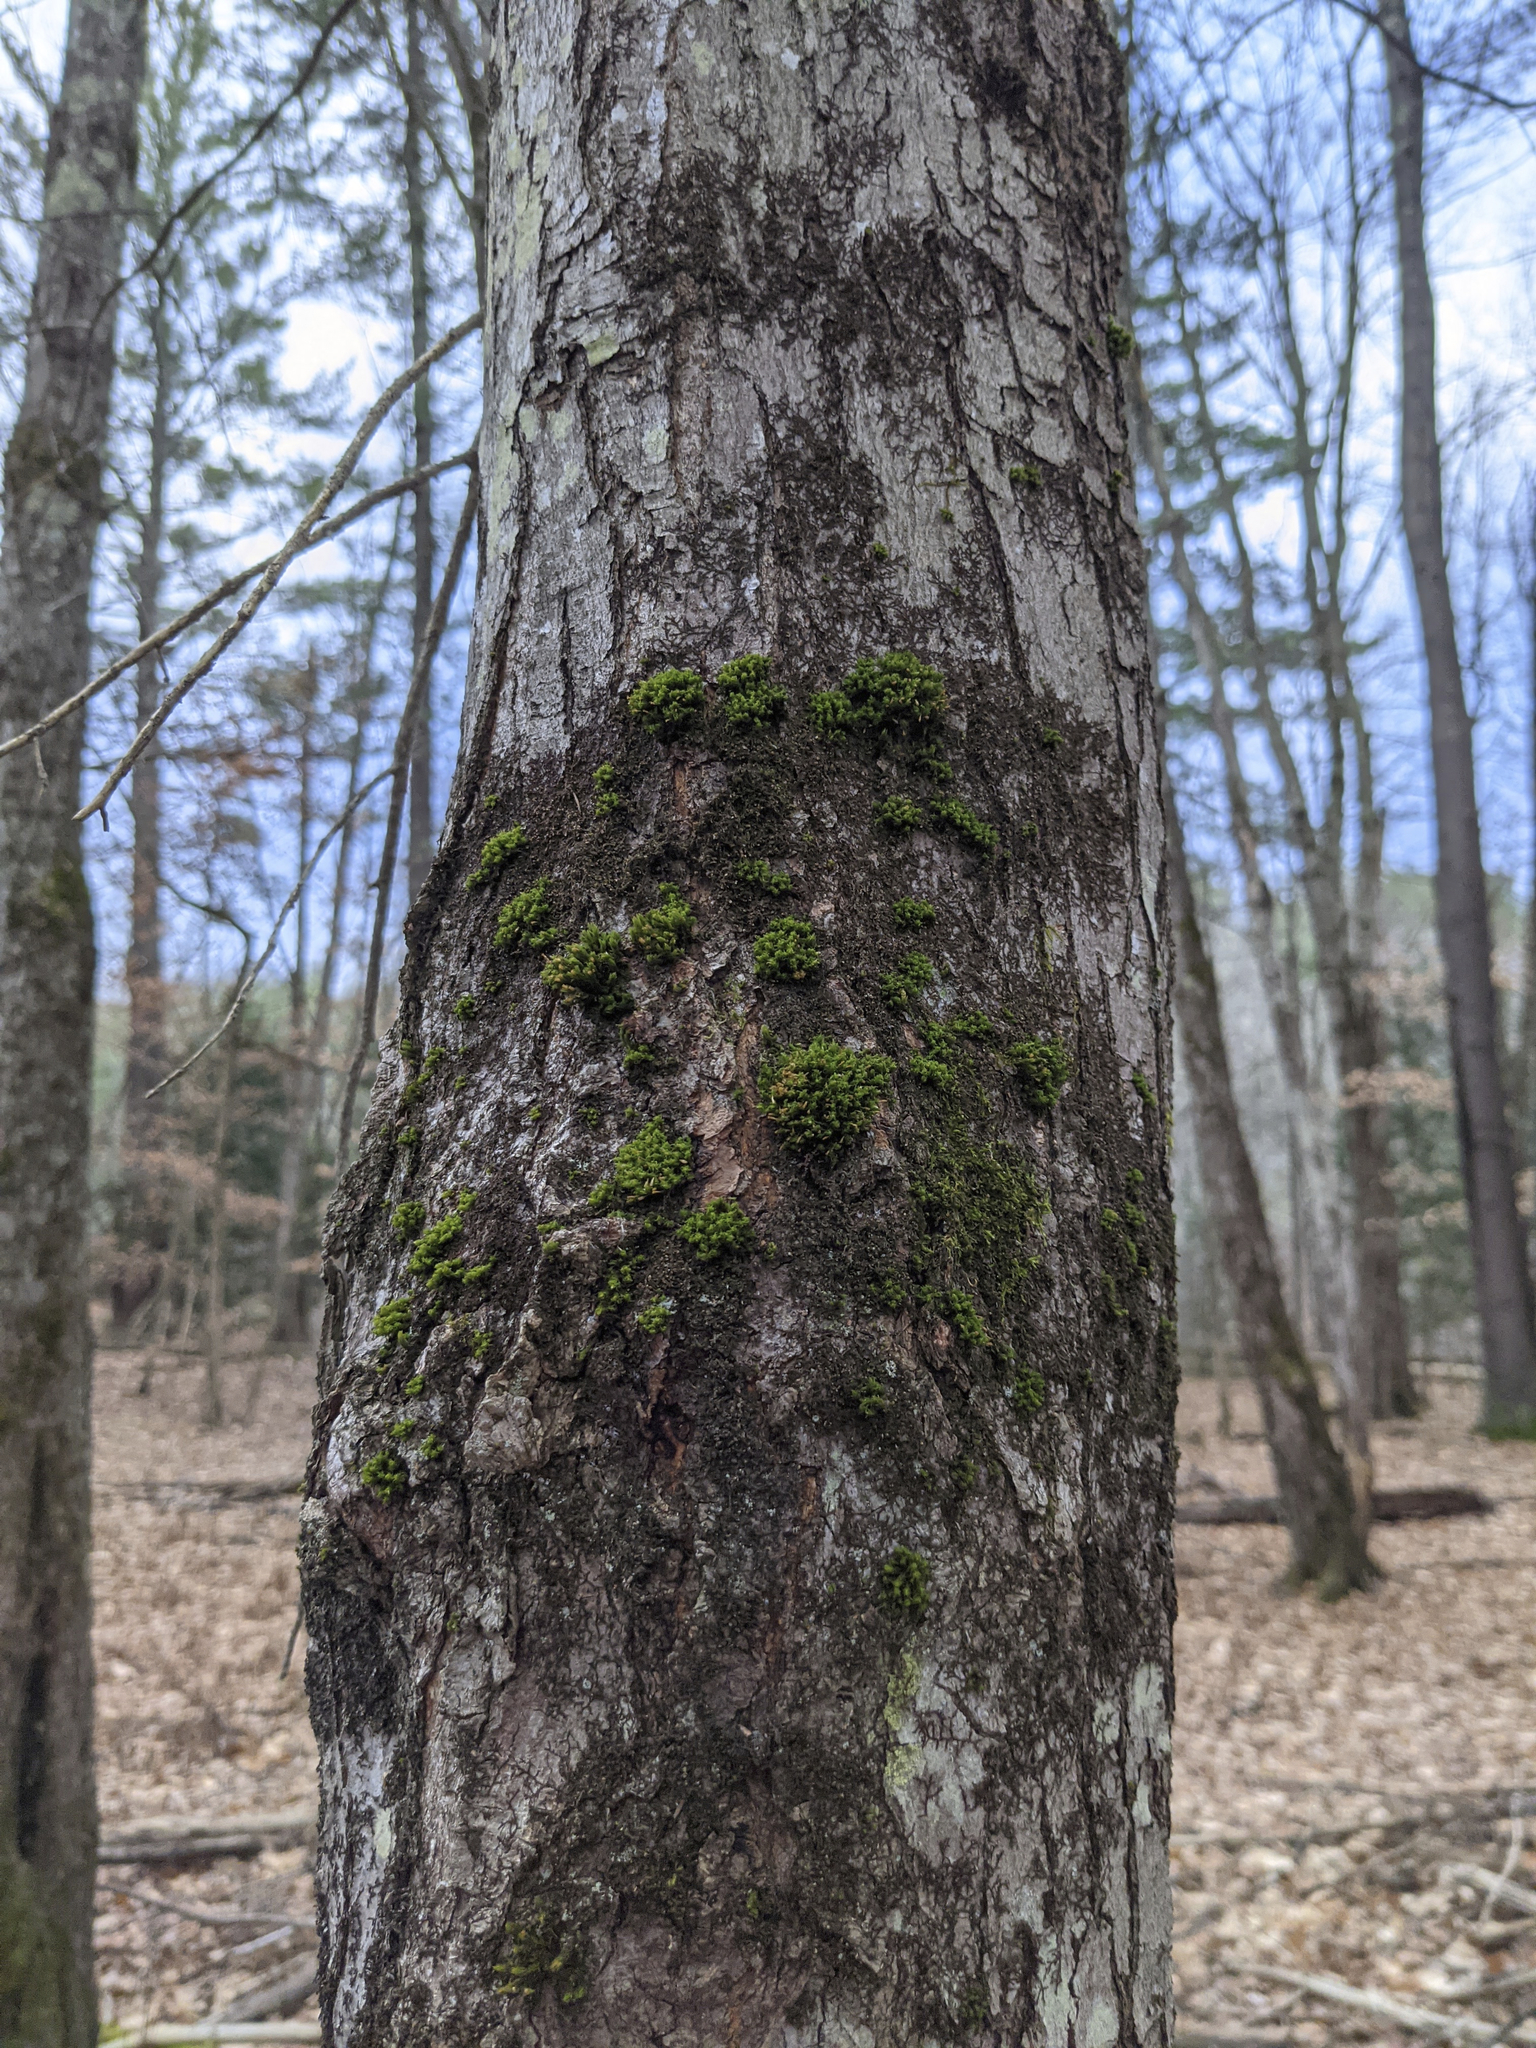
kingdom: Plantae
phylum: Bryophyta
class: Bryopsida
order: Orthotrichales
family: Orthotrichaceae
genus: Ulota
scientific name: Ulota crispa
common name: Crisped pincushion moss
